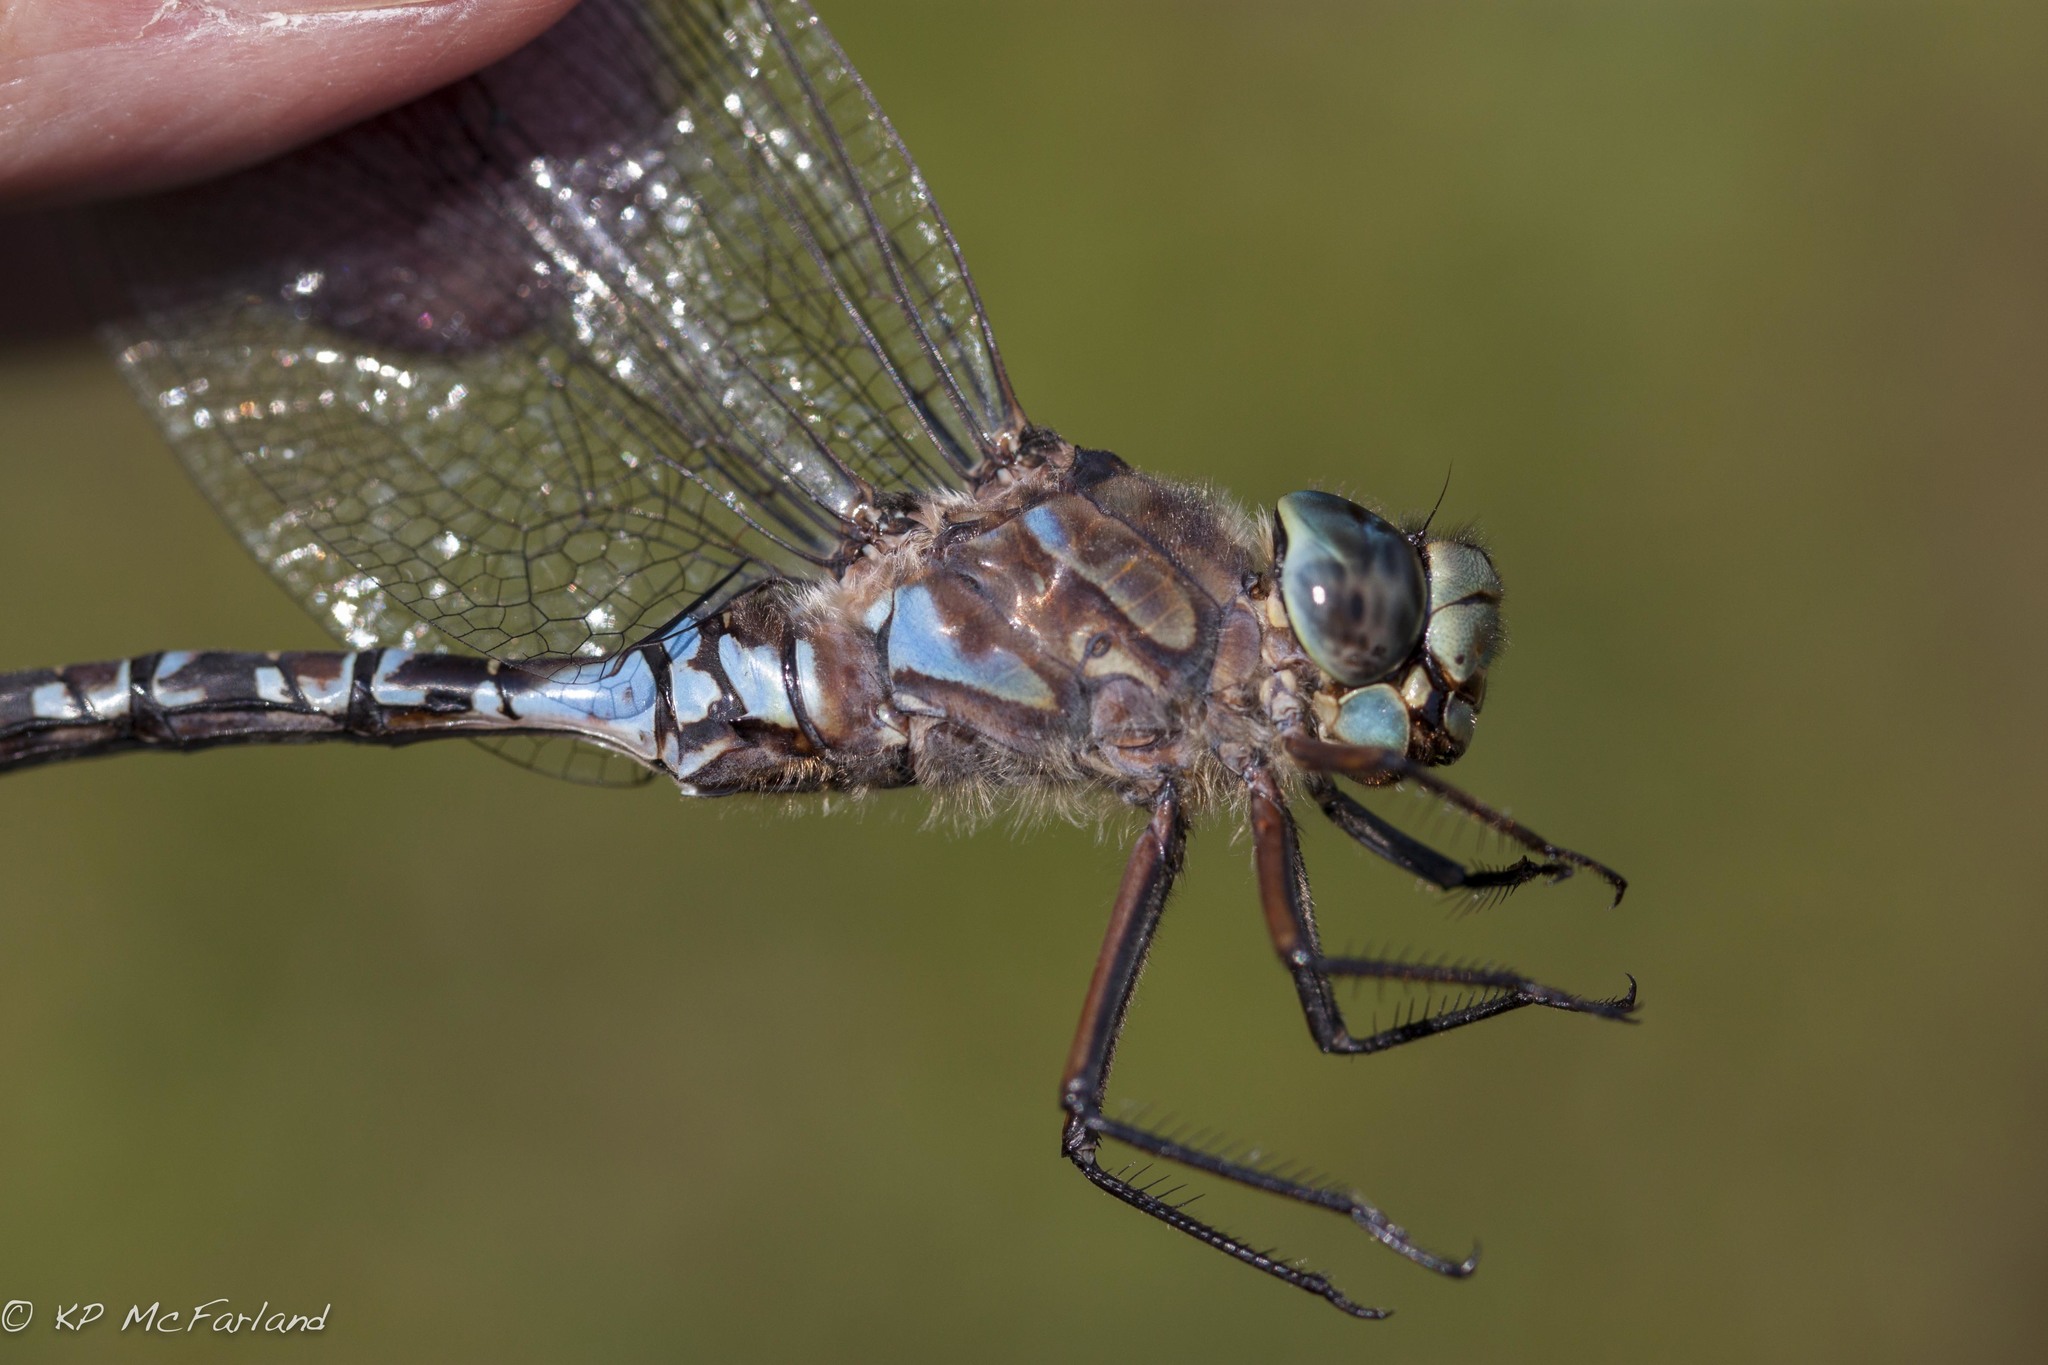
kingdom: Animalia
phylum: Arthropoda
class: Insecta
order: Odonata
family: Aeshnidae
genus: Aeshna
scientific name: Aeshna eremita
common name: Lake darner
